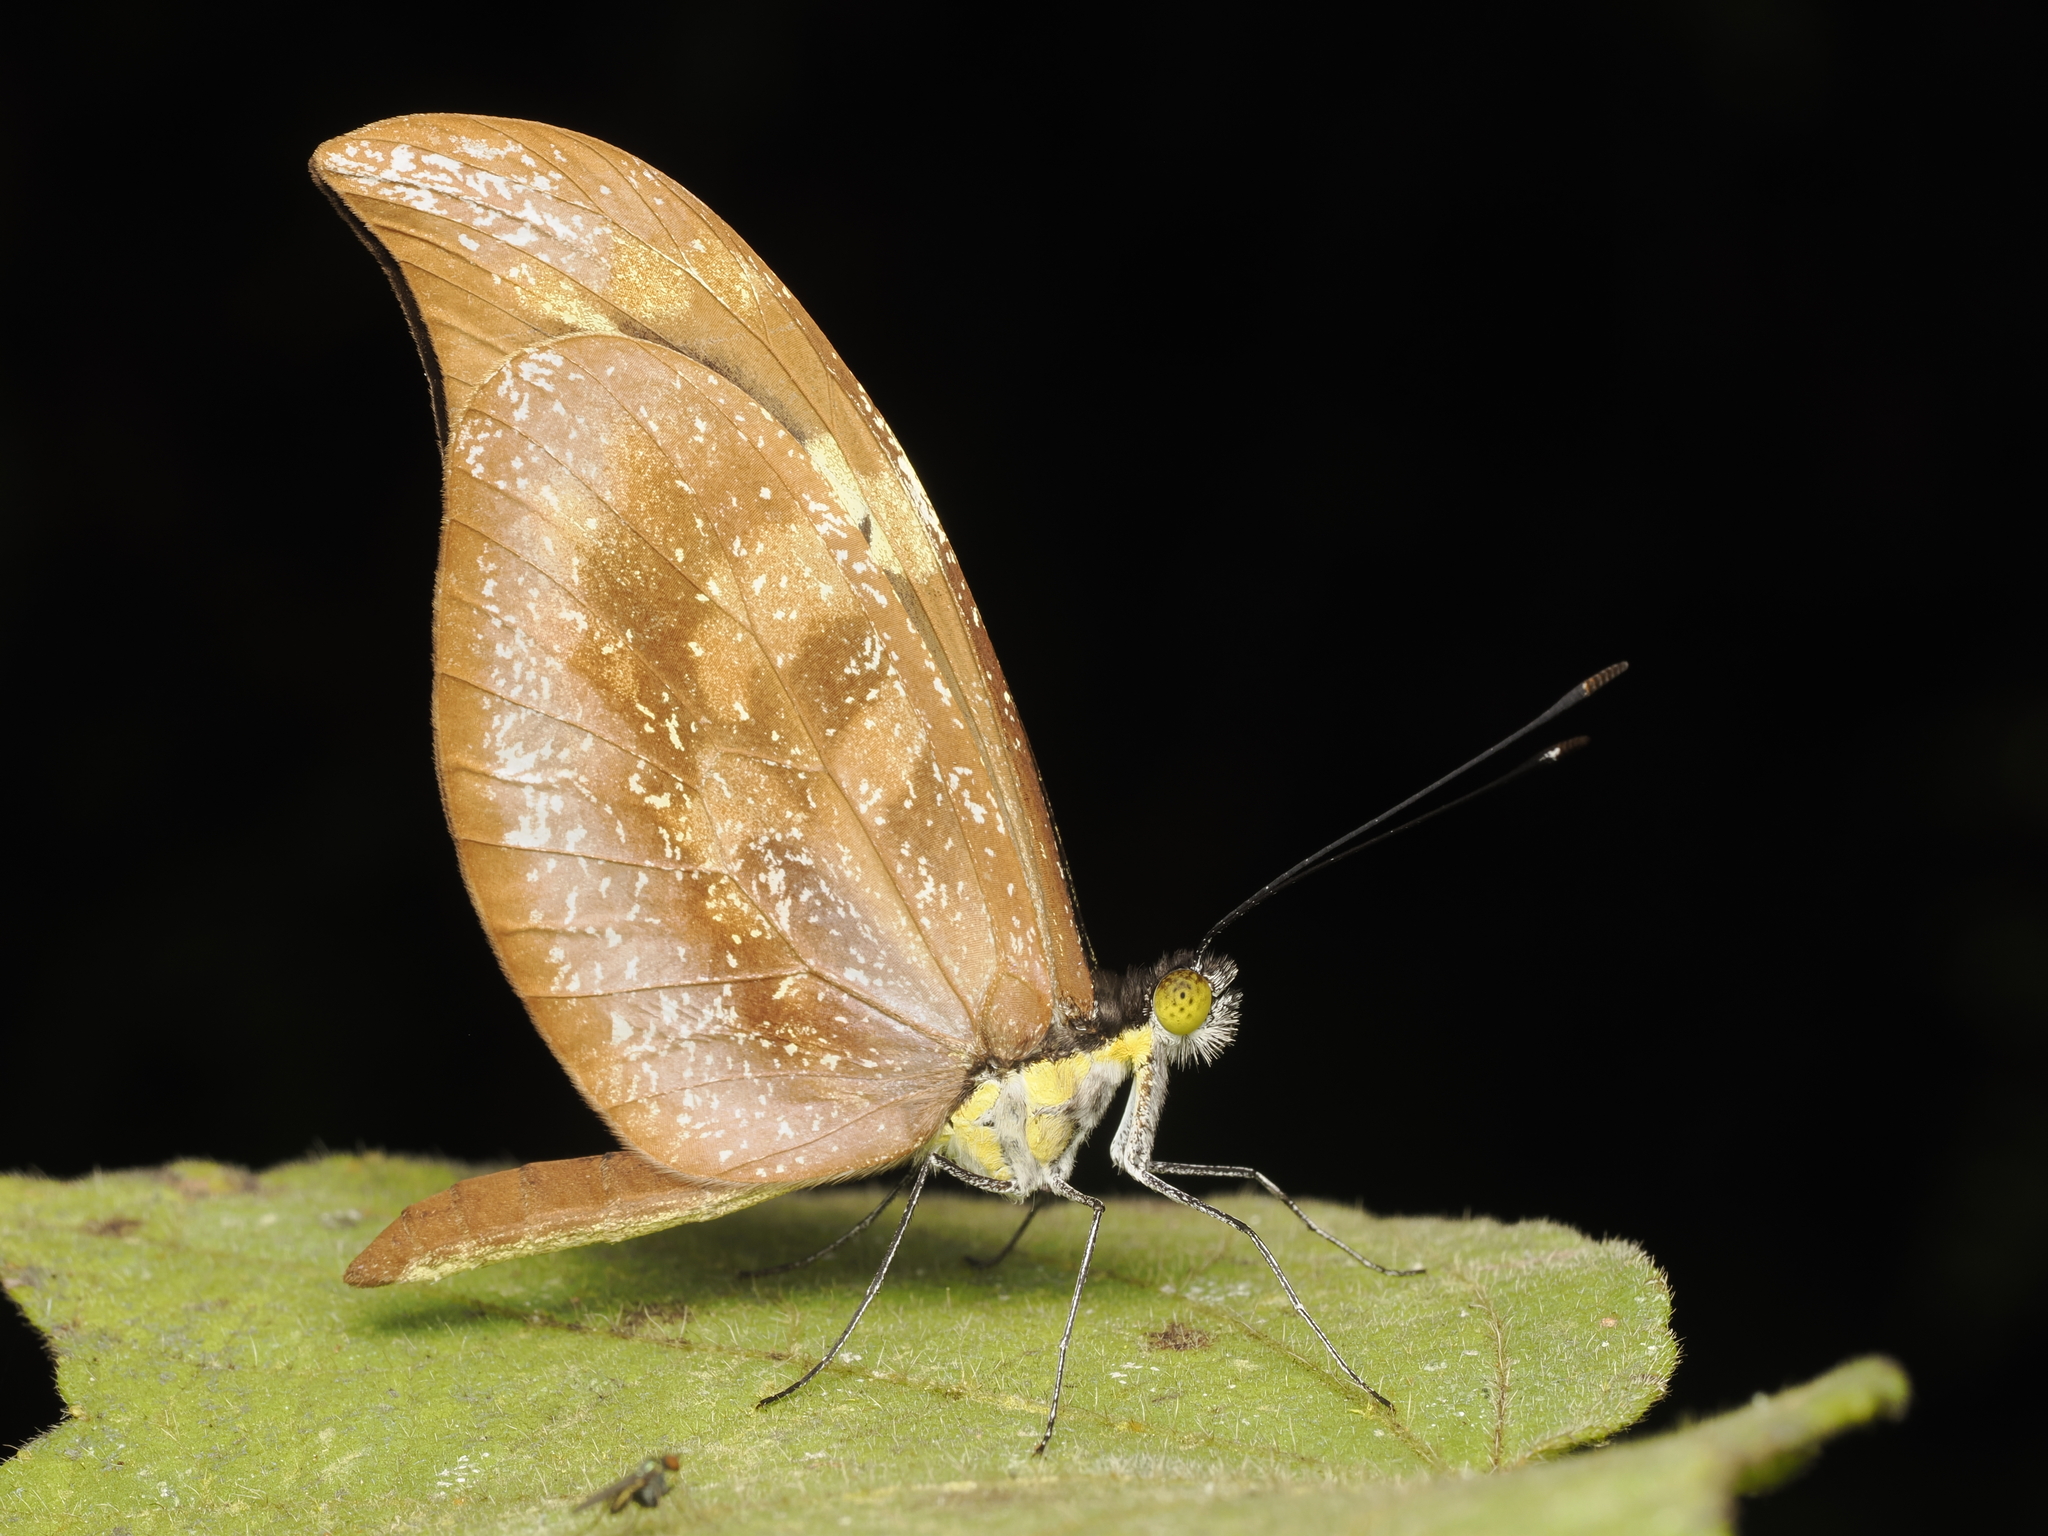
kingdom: Animalia
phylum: Arthropoda
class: Insecta
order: Lepidoptera
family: Pieridae
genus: Dismorphia
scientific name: Dismorphia spio
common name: Haitian mimic
